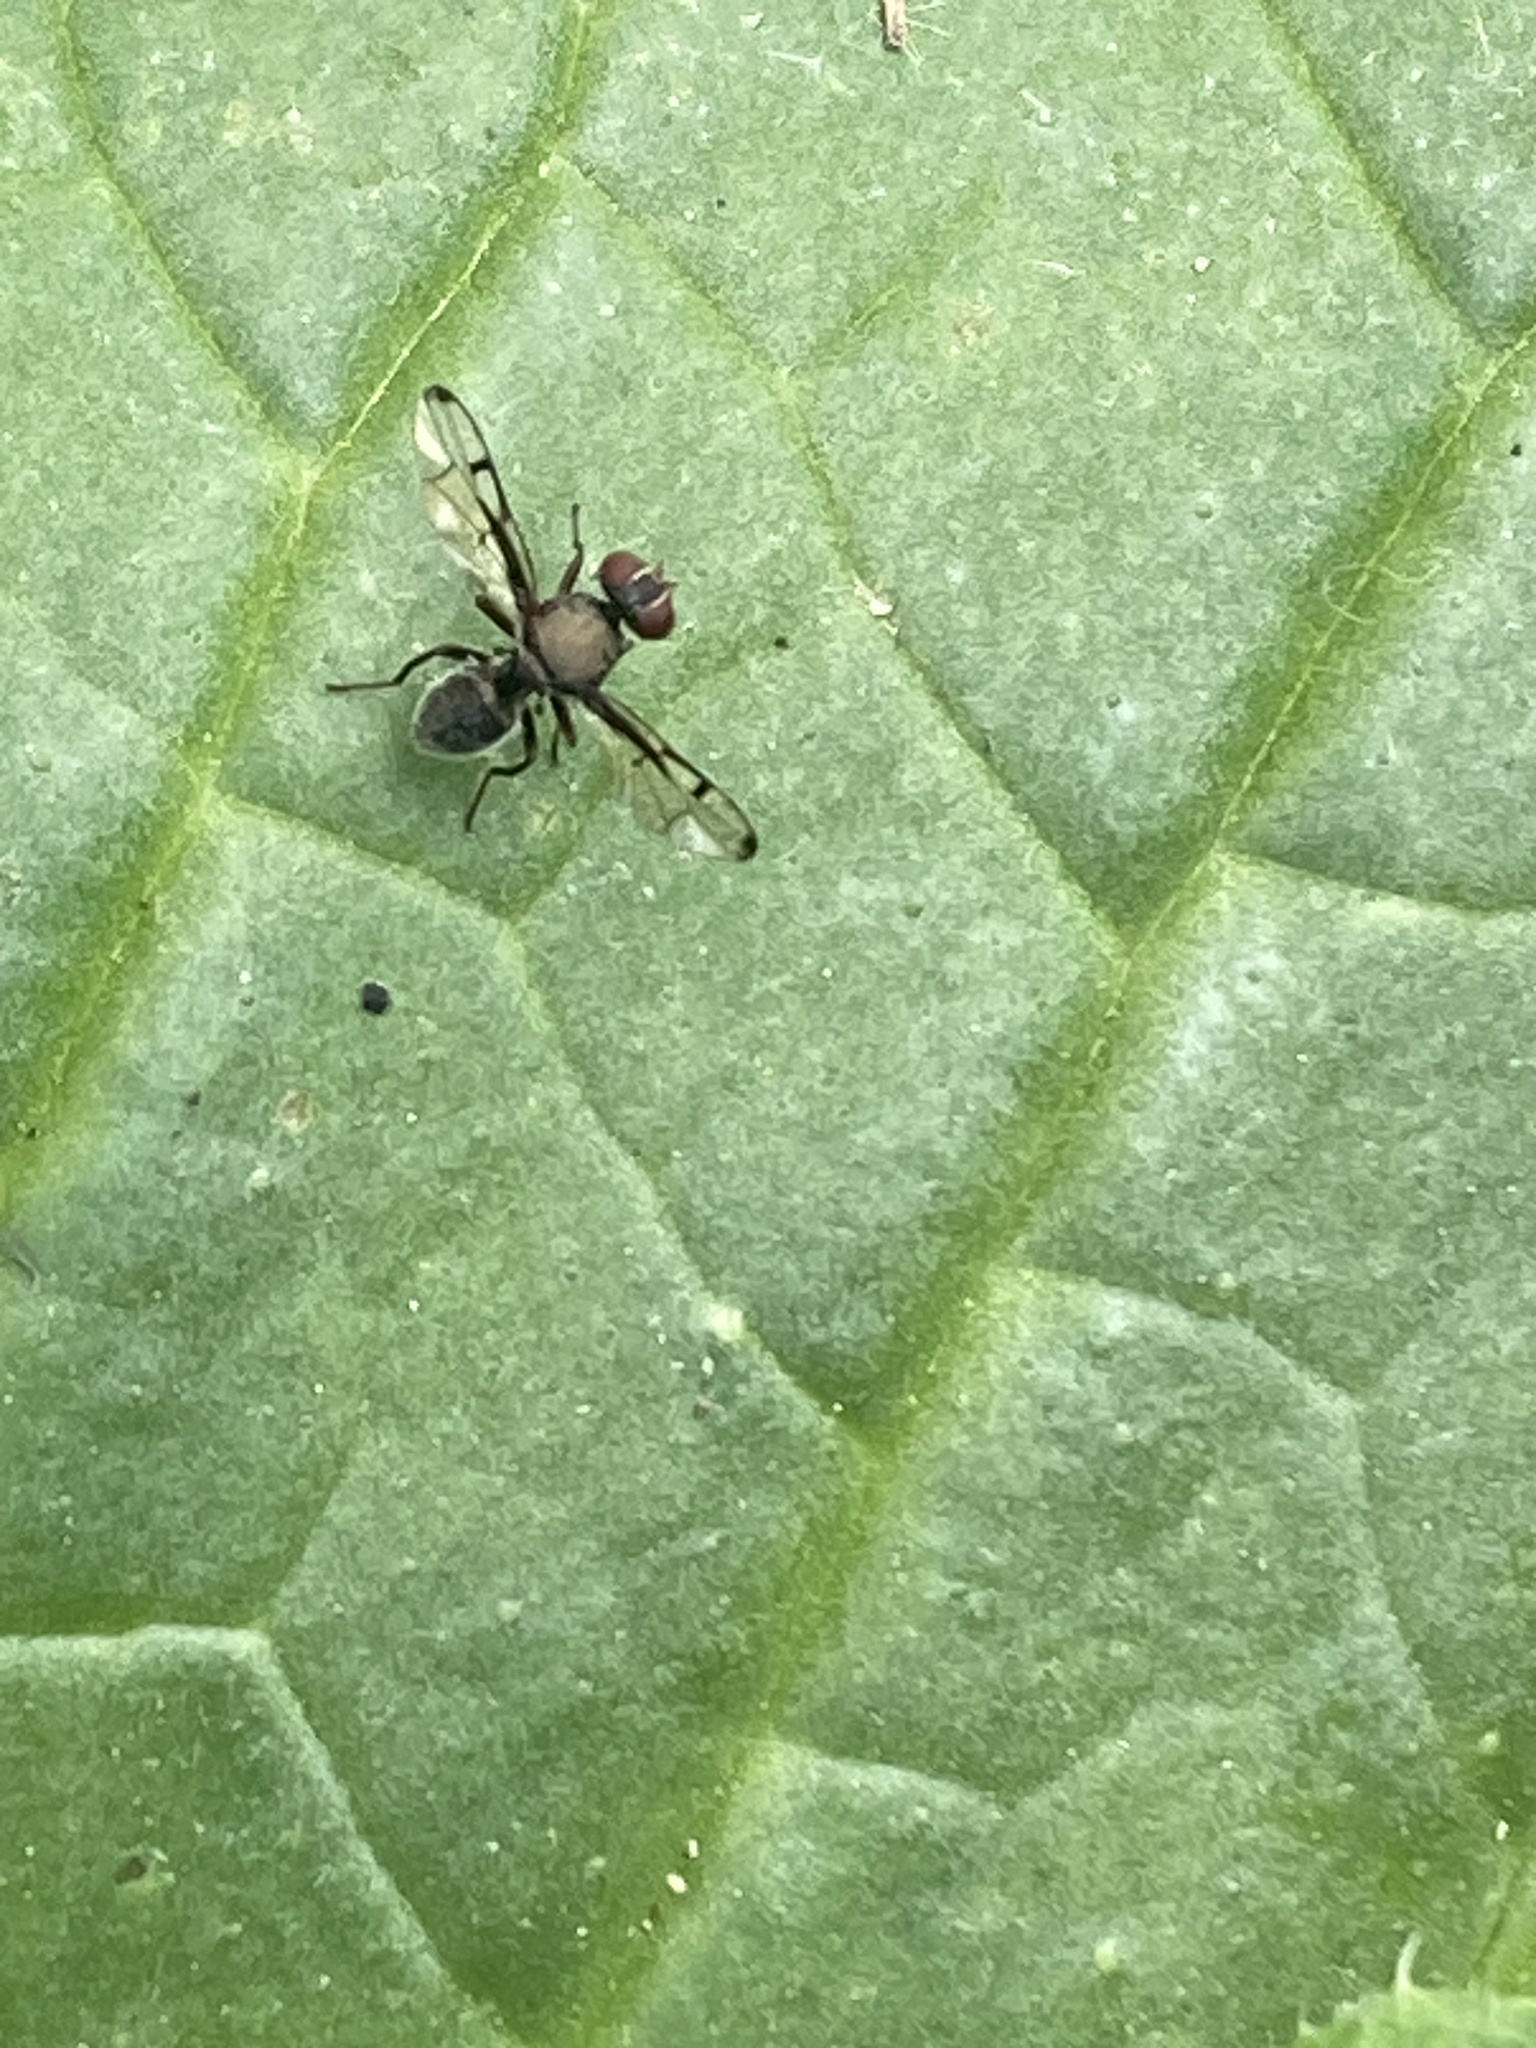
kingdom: Animalia
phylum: Arthropoda
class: Insecta
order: Diptera
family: Platystomatidae
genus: Pogonortalis
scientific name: Pogonortalis doclea
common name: Boatman fly
